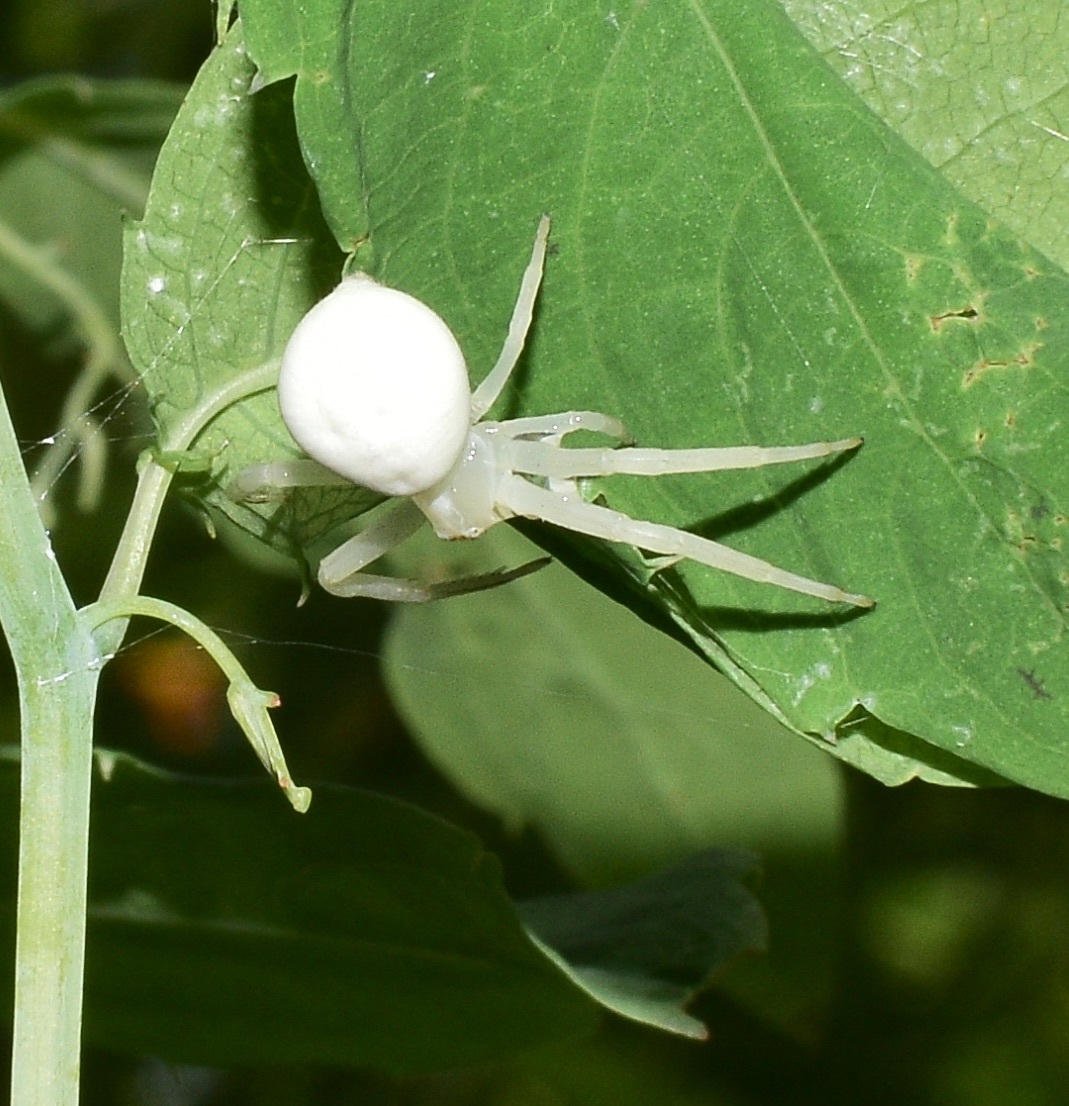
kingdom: Animalia
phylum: Arthropoda
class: Arachnida
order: Araneae
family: Thomisidae
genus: Misumena
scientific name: Misumena vatia
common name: Goldenrod crab spider
